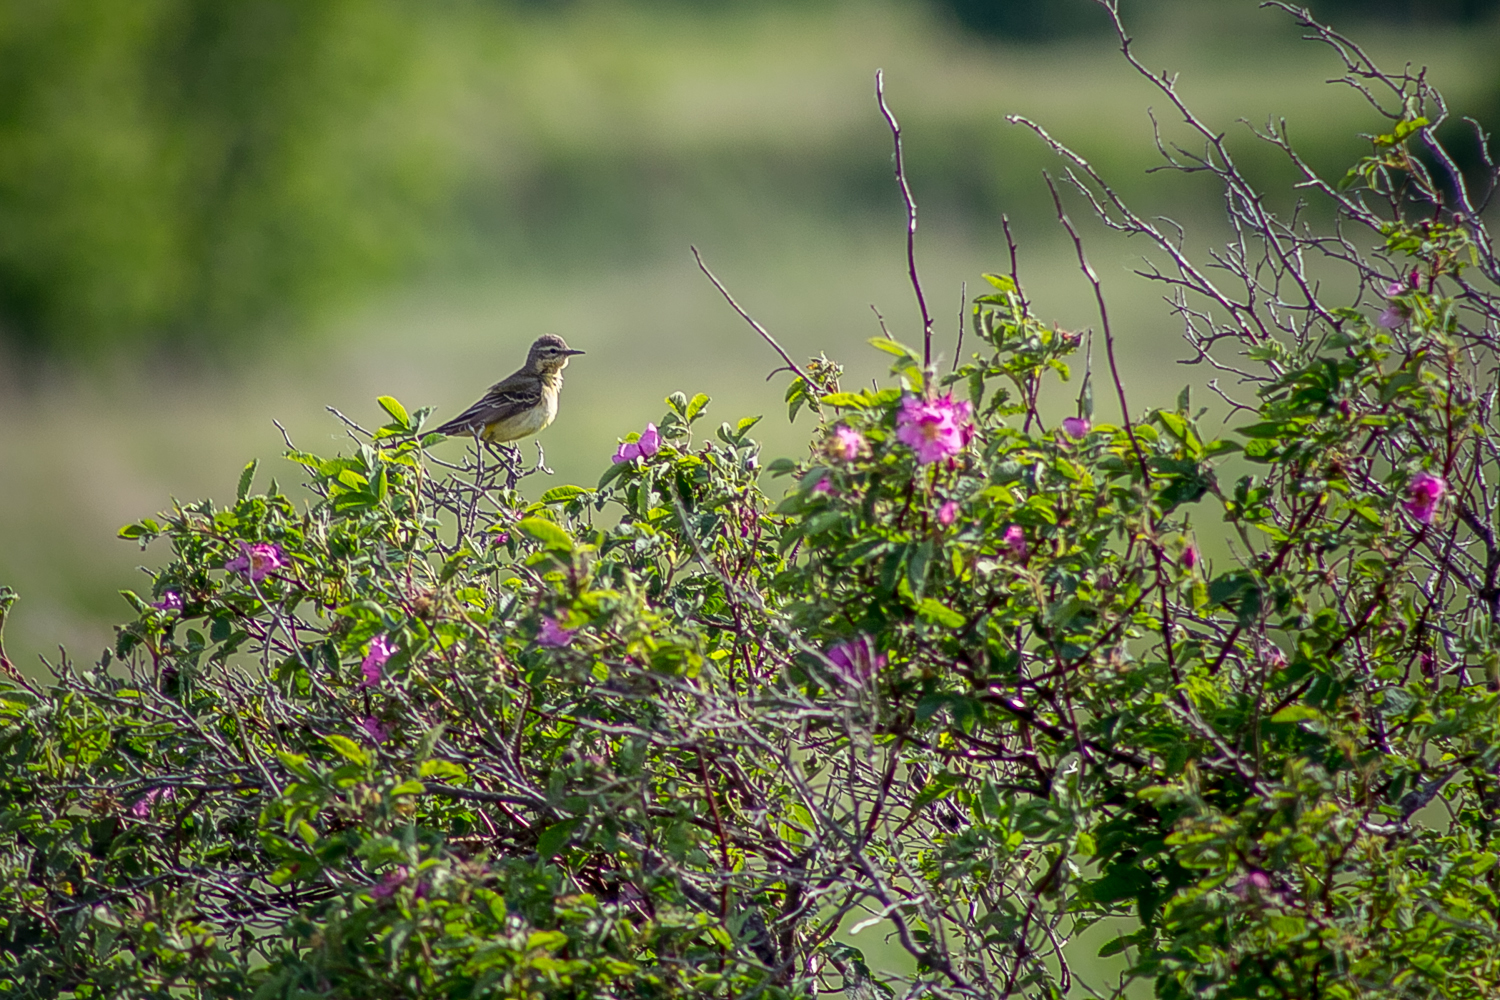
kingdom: Animalia
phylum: Chordata
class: Aves
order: Passeriformes
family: Motacillidae
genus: Motacilla
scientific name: Motacilla flava
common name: Western yellow wagtail
